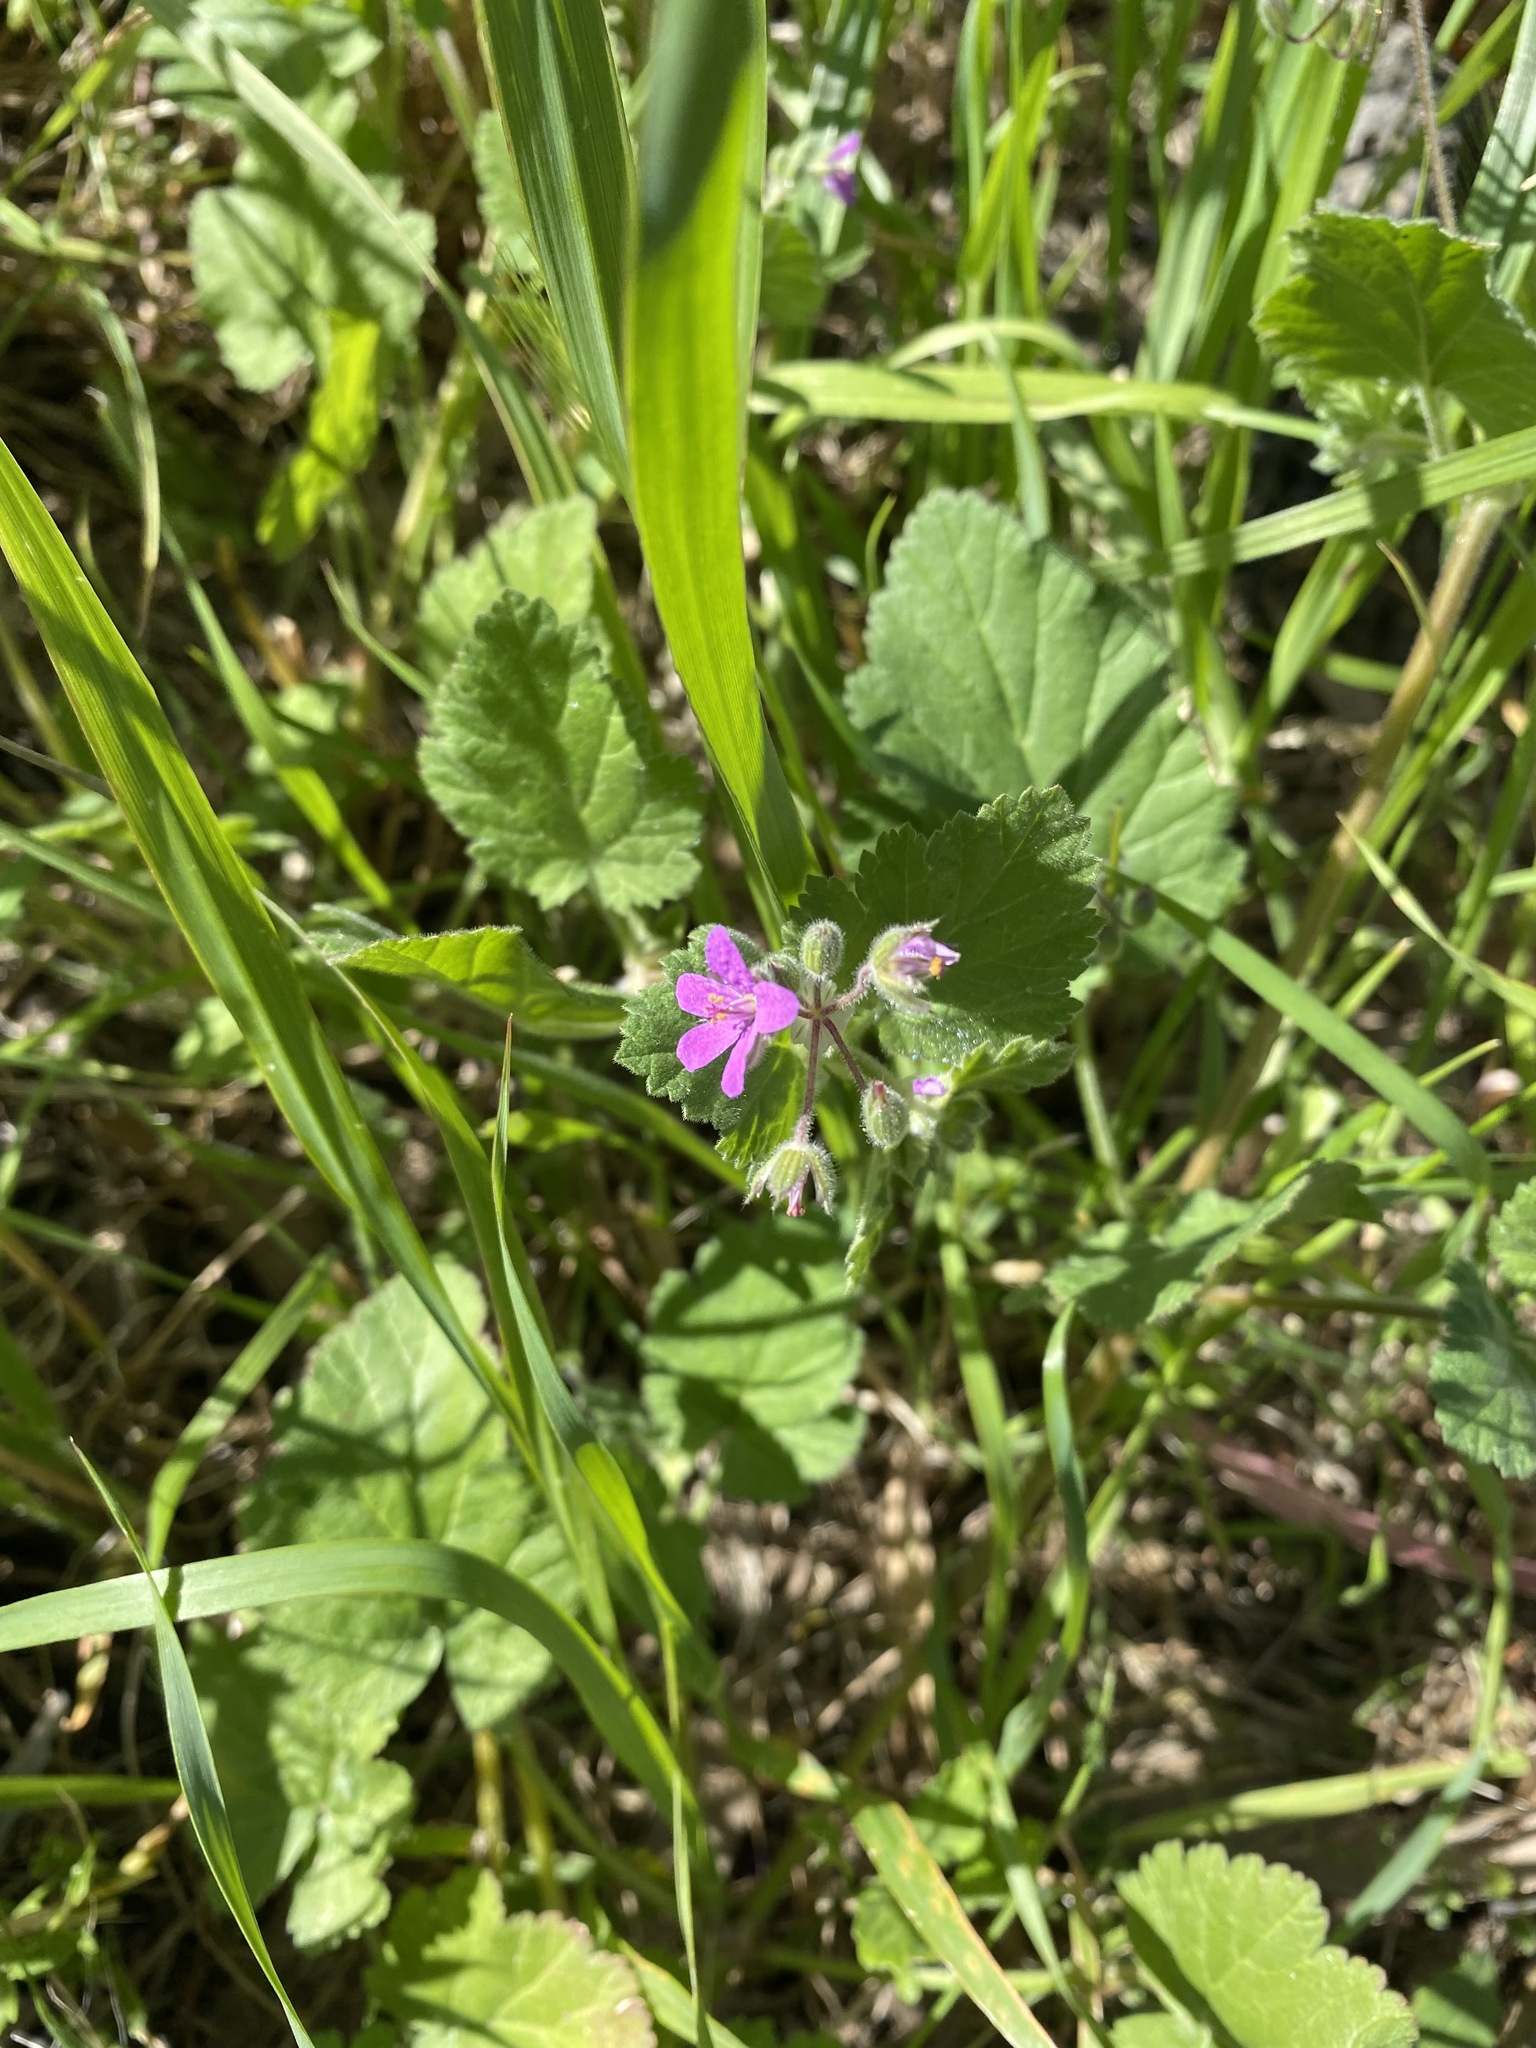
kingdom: Plantae
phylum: Tracheophyta
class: Magnoliopsida
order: Geraniales
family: Geraniaceae
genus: Erodium
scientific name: Erodium malacoides
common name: Soft stork's-bill
